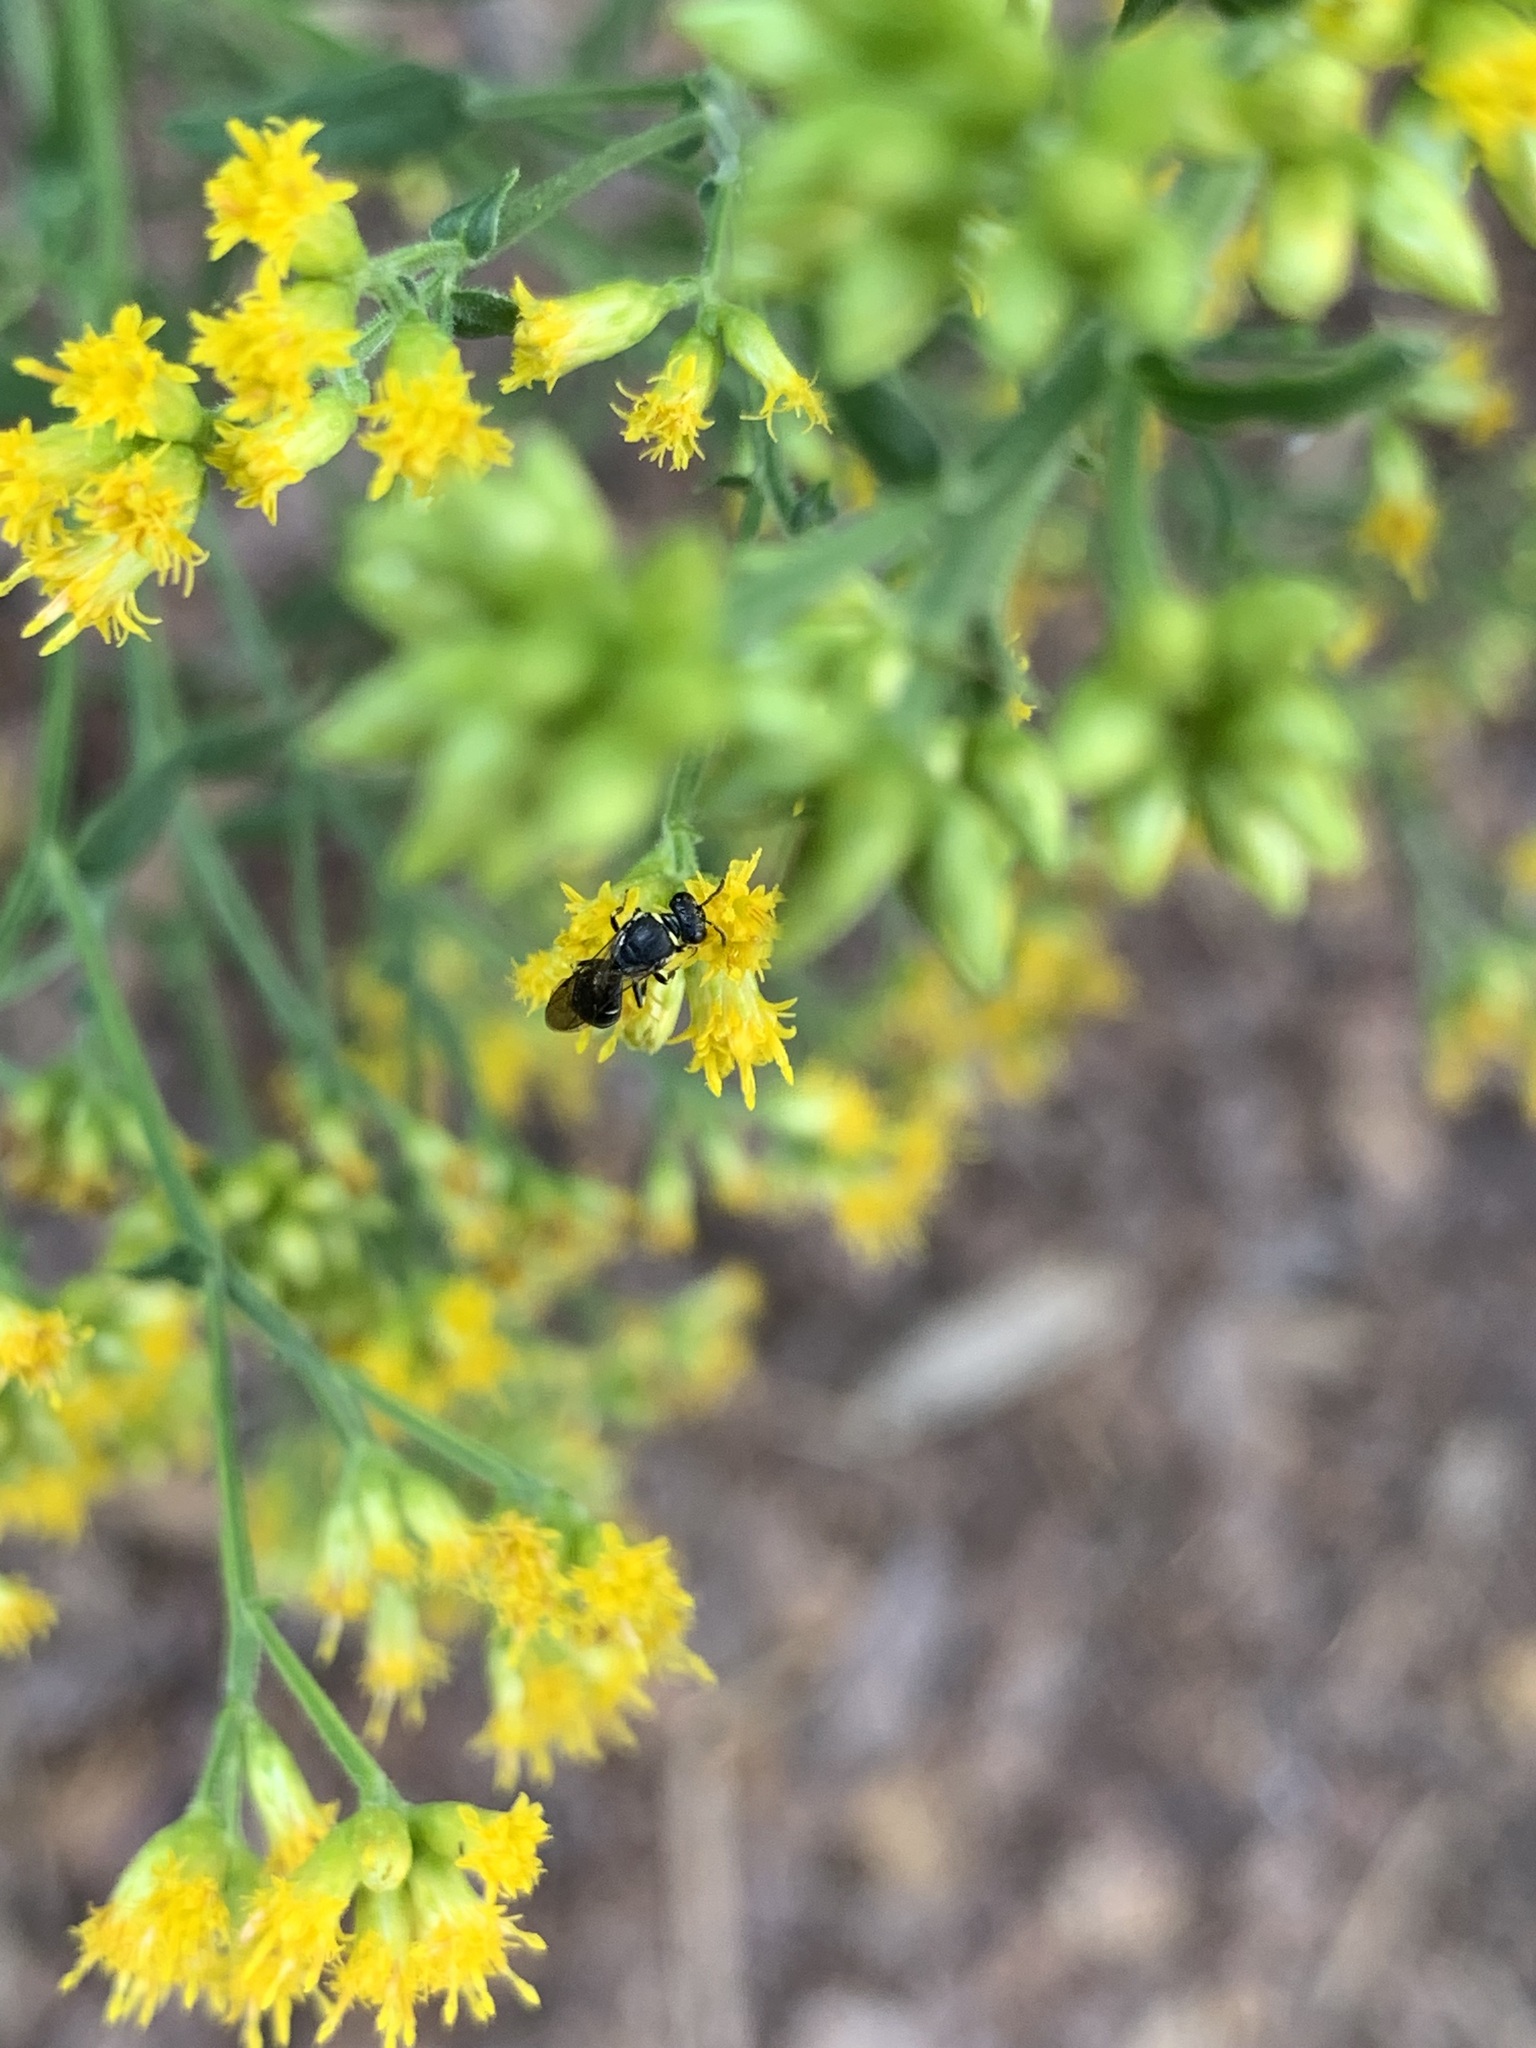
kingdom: Animalia
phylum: Arthropoda
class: Insecta
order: Hymenoptera
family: Colletidae
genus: Hylaeus
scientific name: Hylaeus
